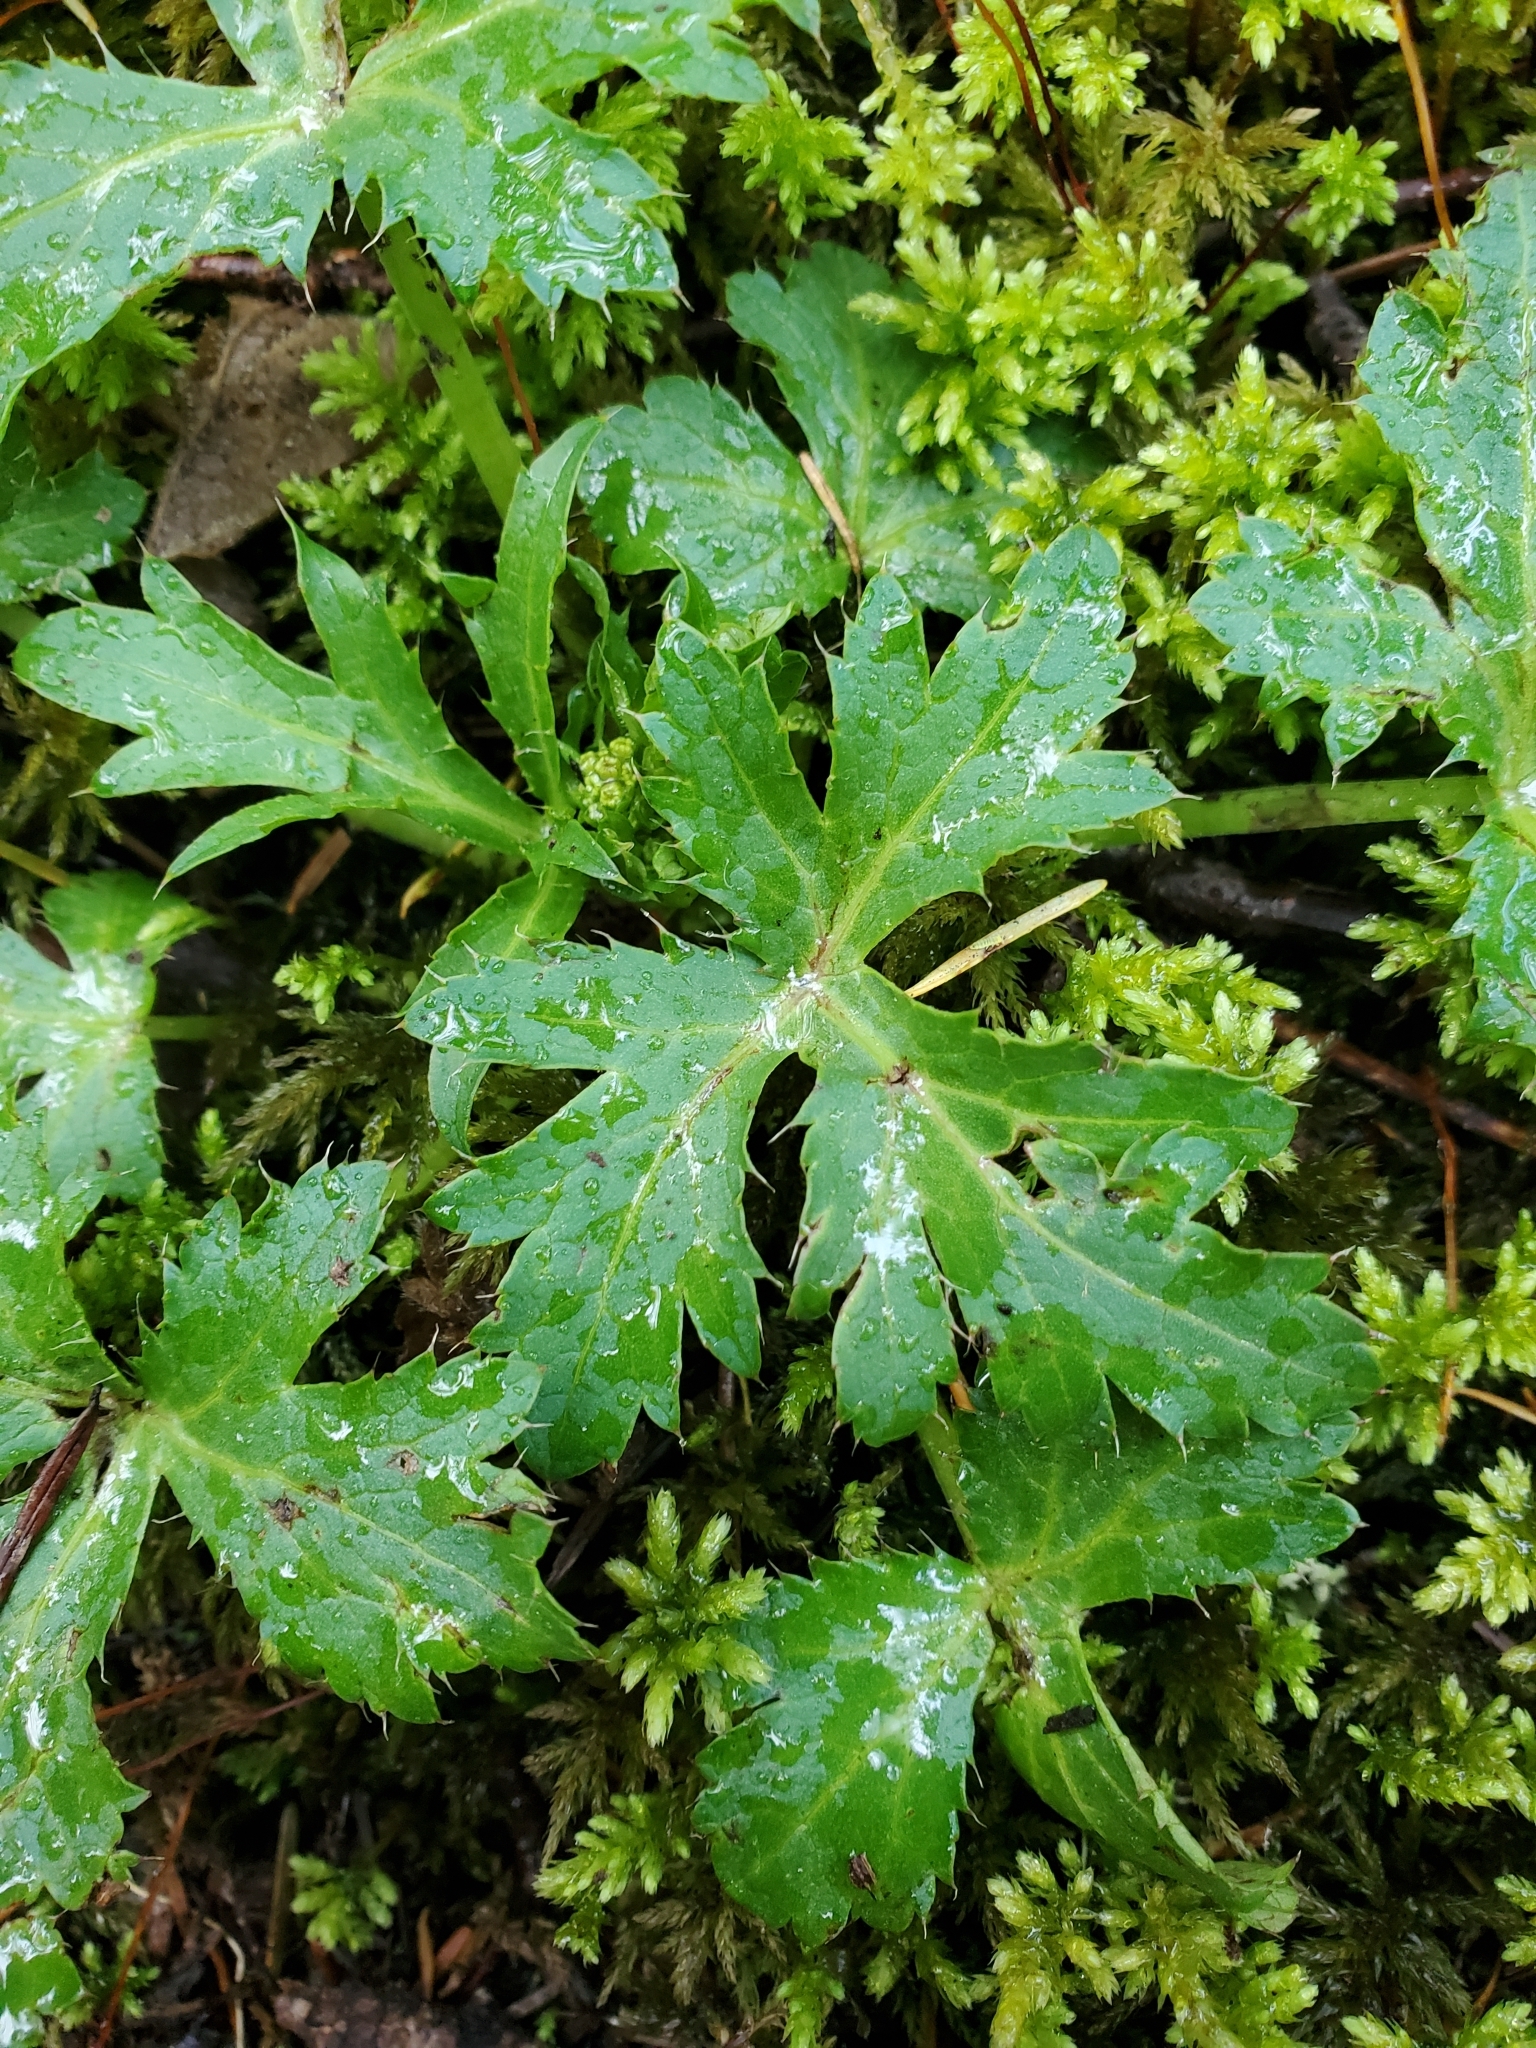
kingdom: Plantae
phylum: Tracheophyta
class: Magnoliopsida
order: Apiales
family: Apiaceae
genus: Sanicula
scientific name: Sanicula crassicaulis
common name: Western snakeroot
